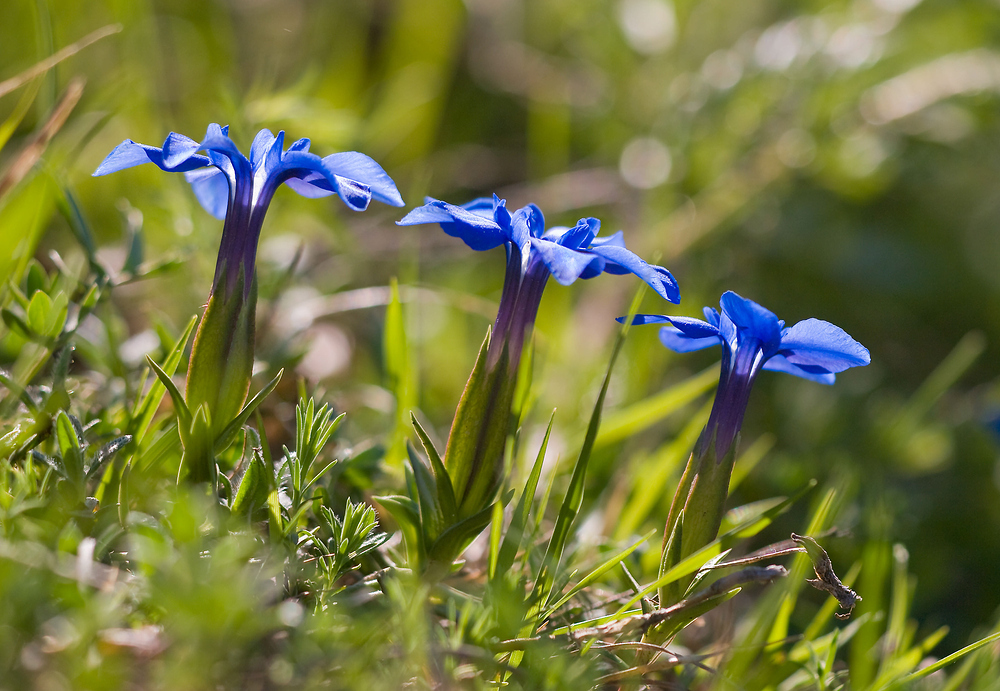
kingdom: Plantae
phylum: Tracheophyta
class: Magnoliopsida
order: Gentianales
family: Gentianaceae
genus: Gentiana
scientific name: Gentiana verna
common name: Spring gentian
